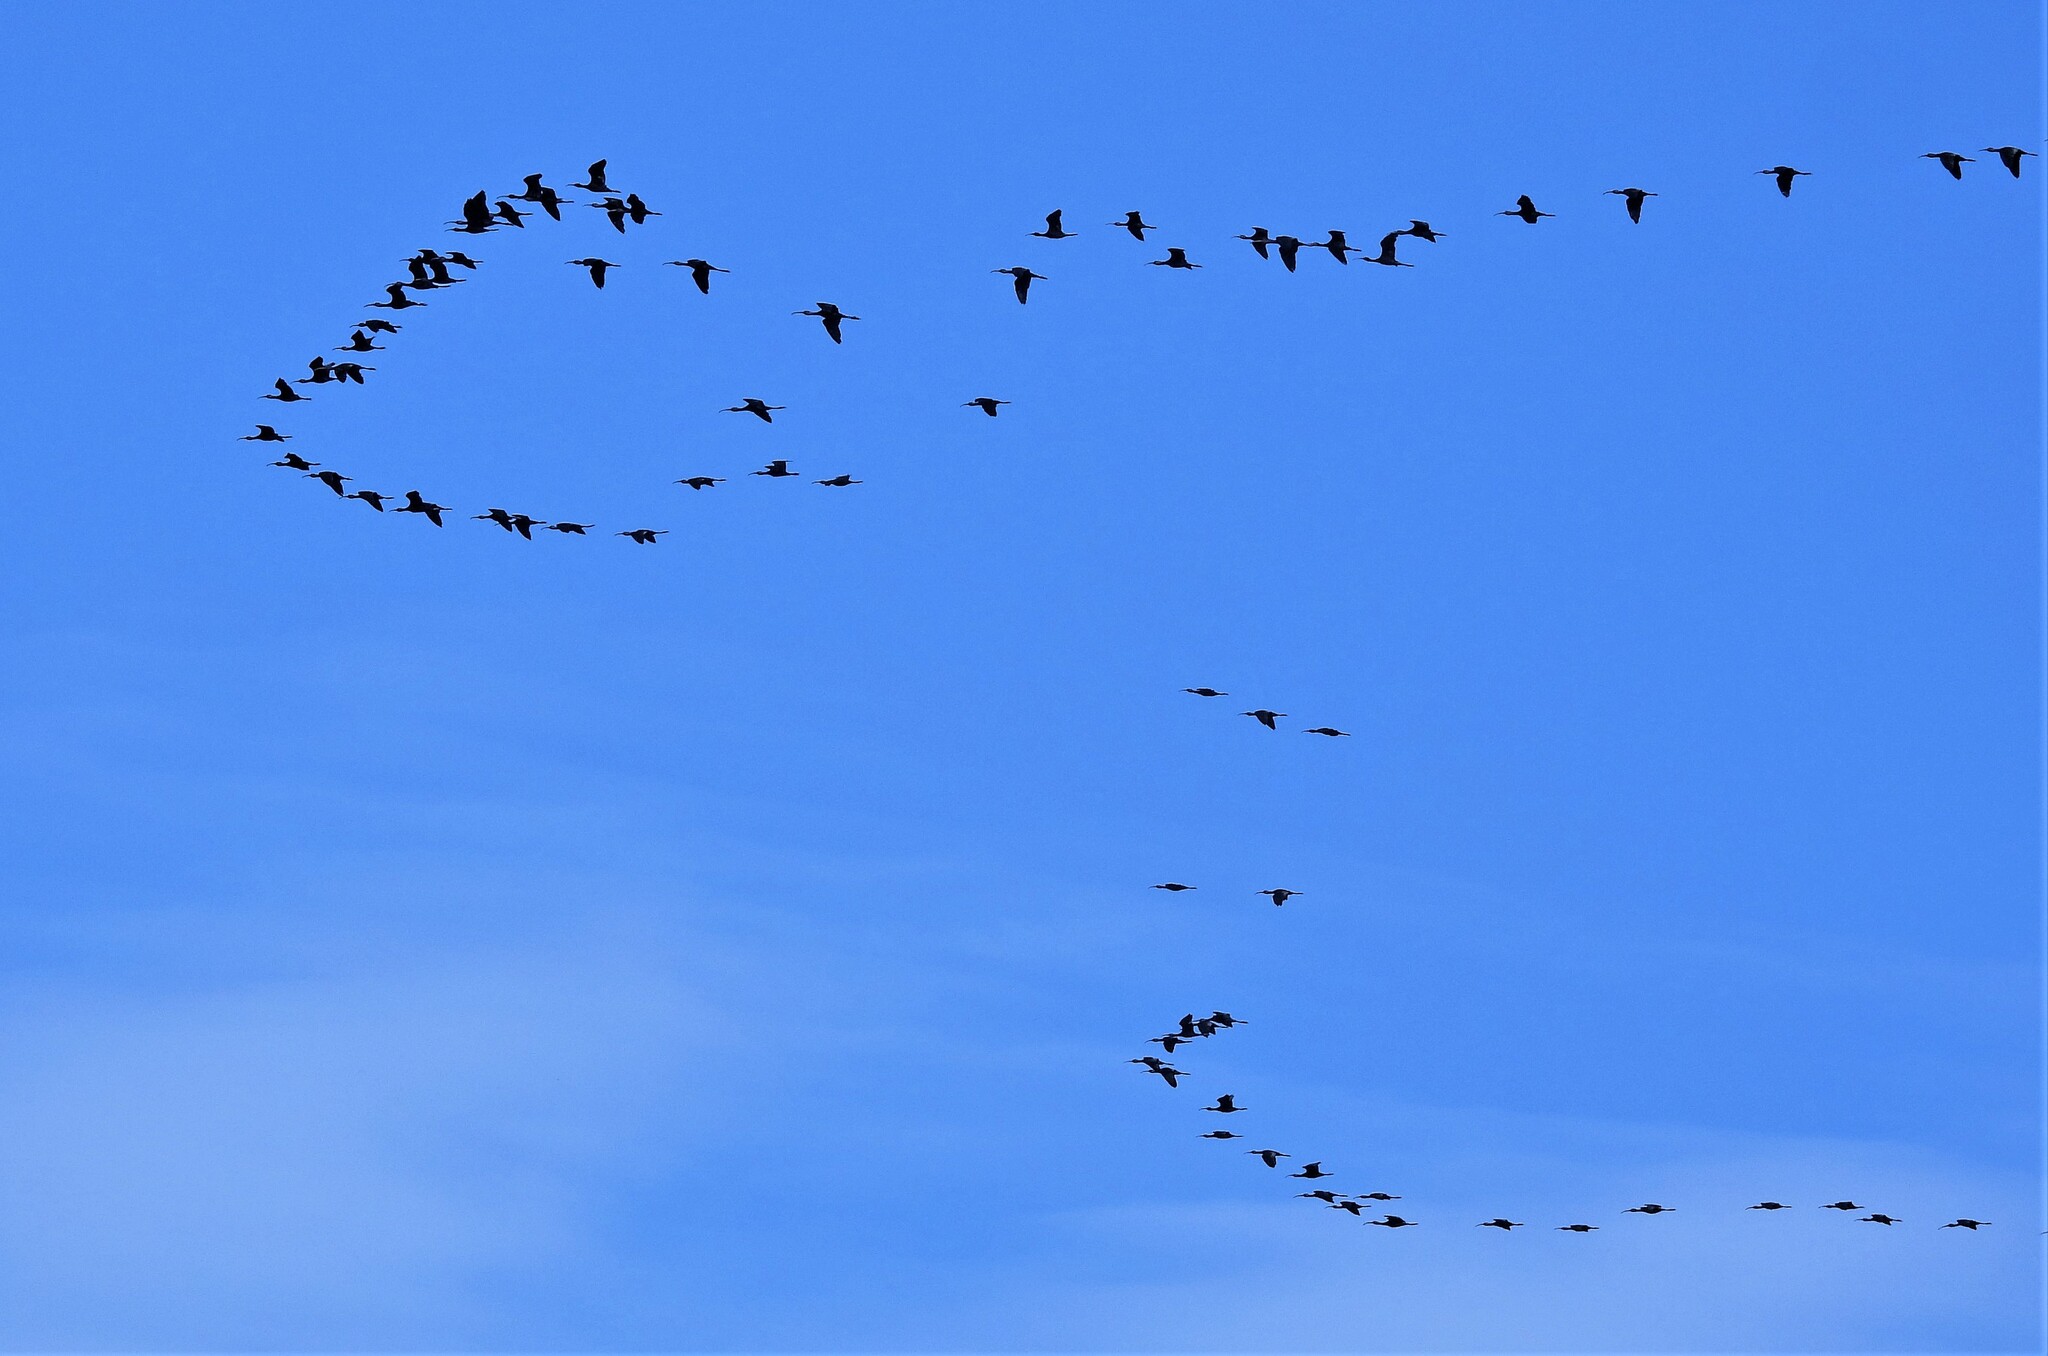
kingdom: Animalia
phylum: Chordata
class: Aves
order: Pelecaniformes
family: Threskiornithidae
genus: Plegadis
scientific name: Plegadis chihi
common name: White-faced ibis
